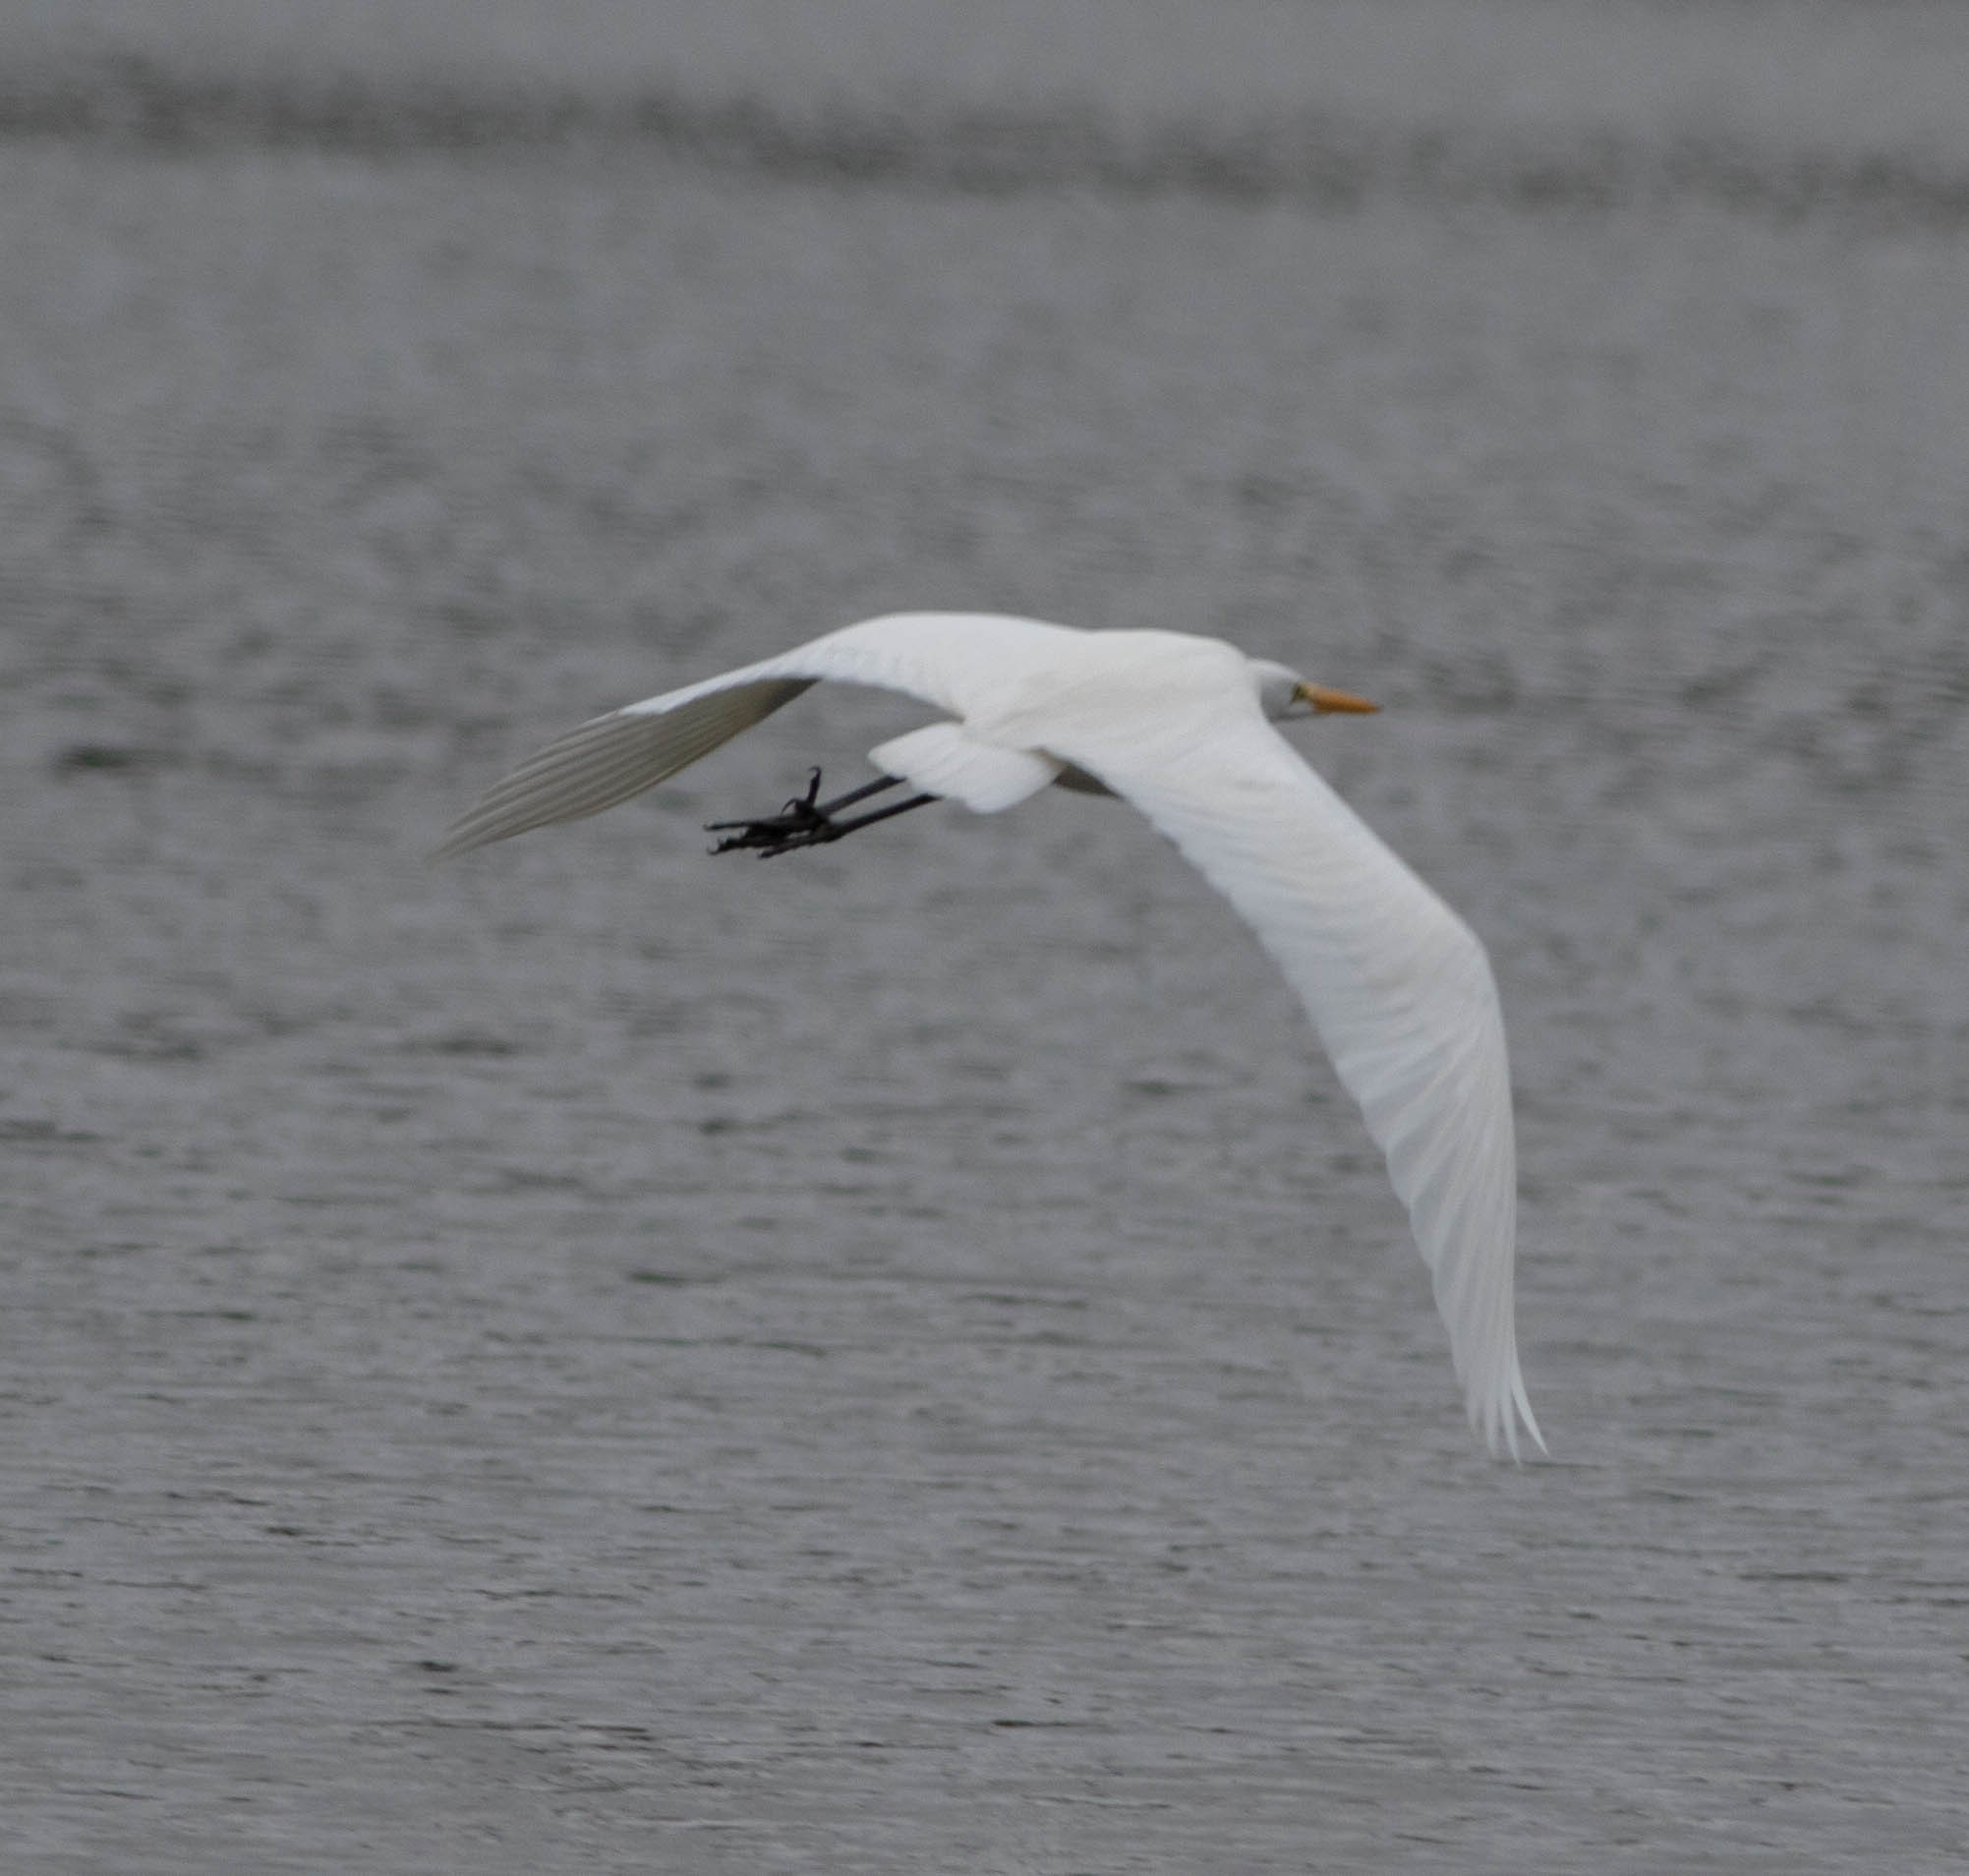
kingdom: Animalia
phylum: Chordata
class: Aves
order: Pelecaniformes
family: Ardeidae
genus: Ardea
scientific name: Ardea alba
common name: Great egret
